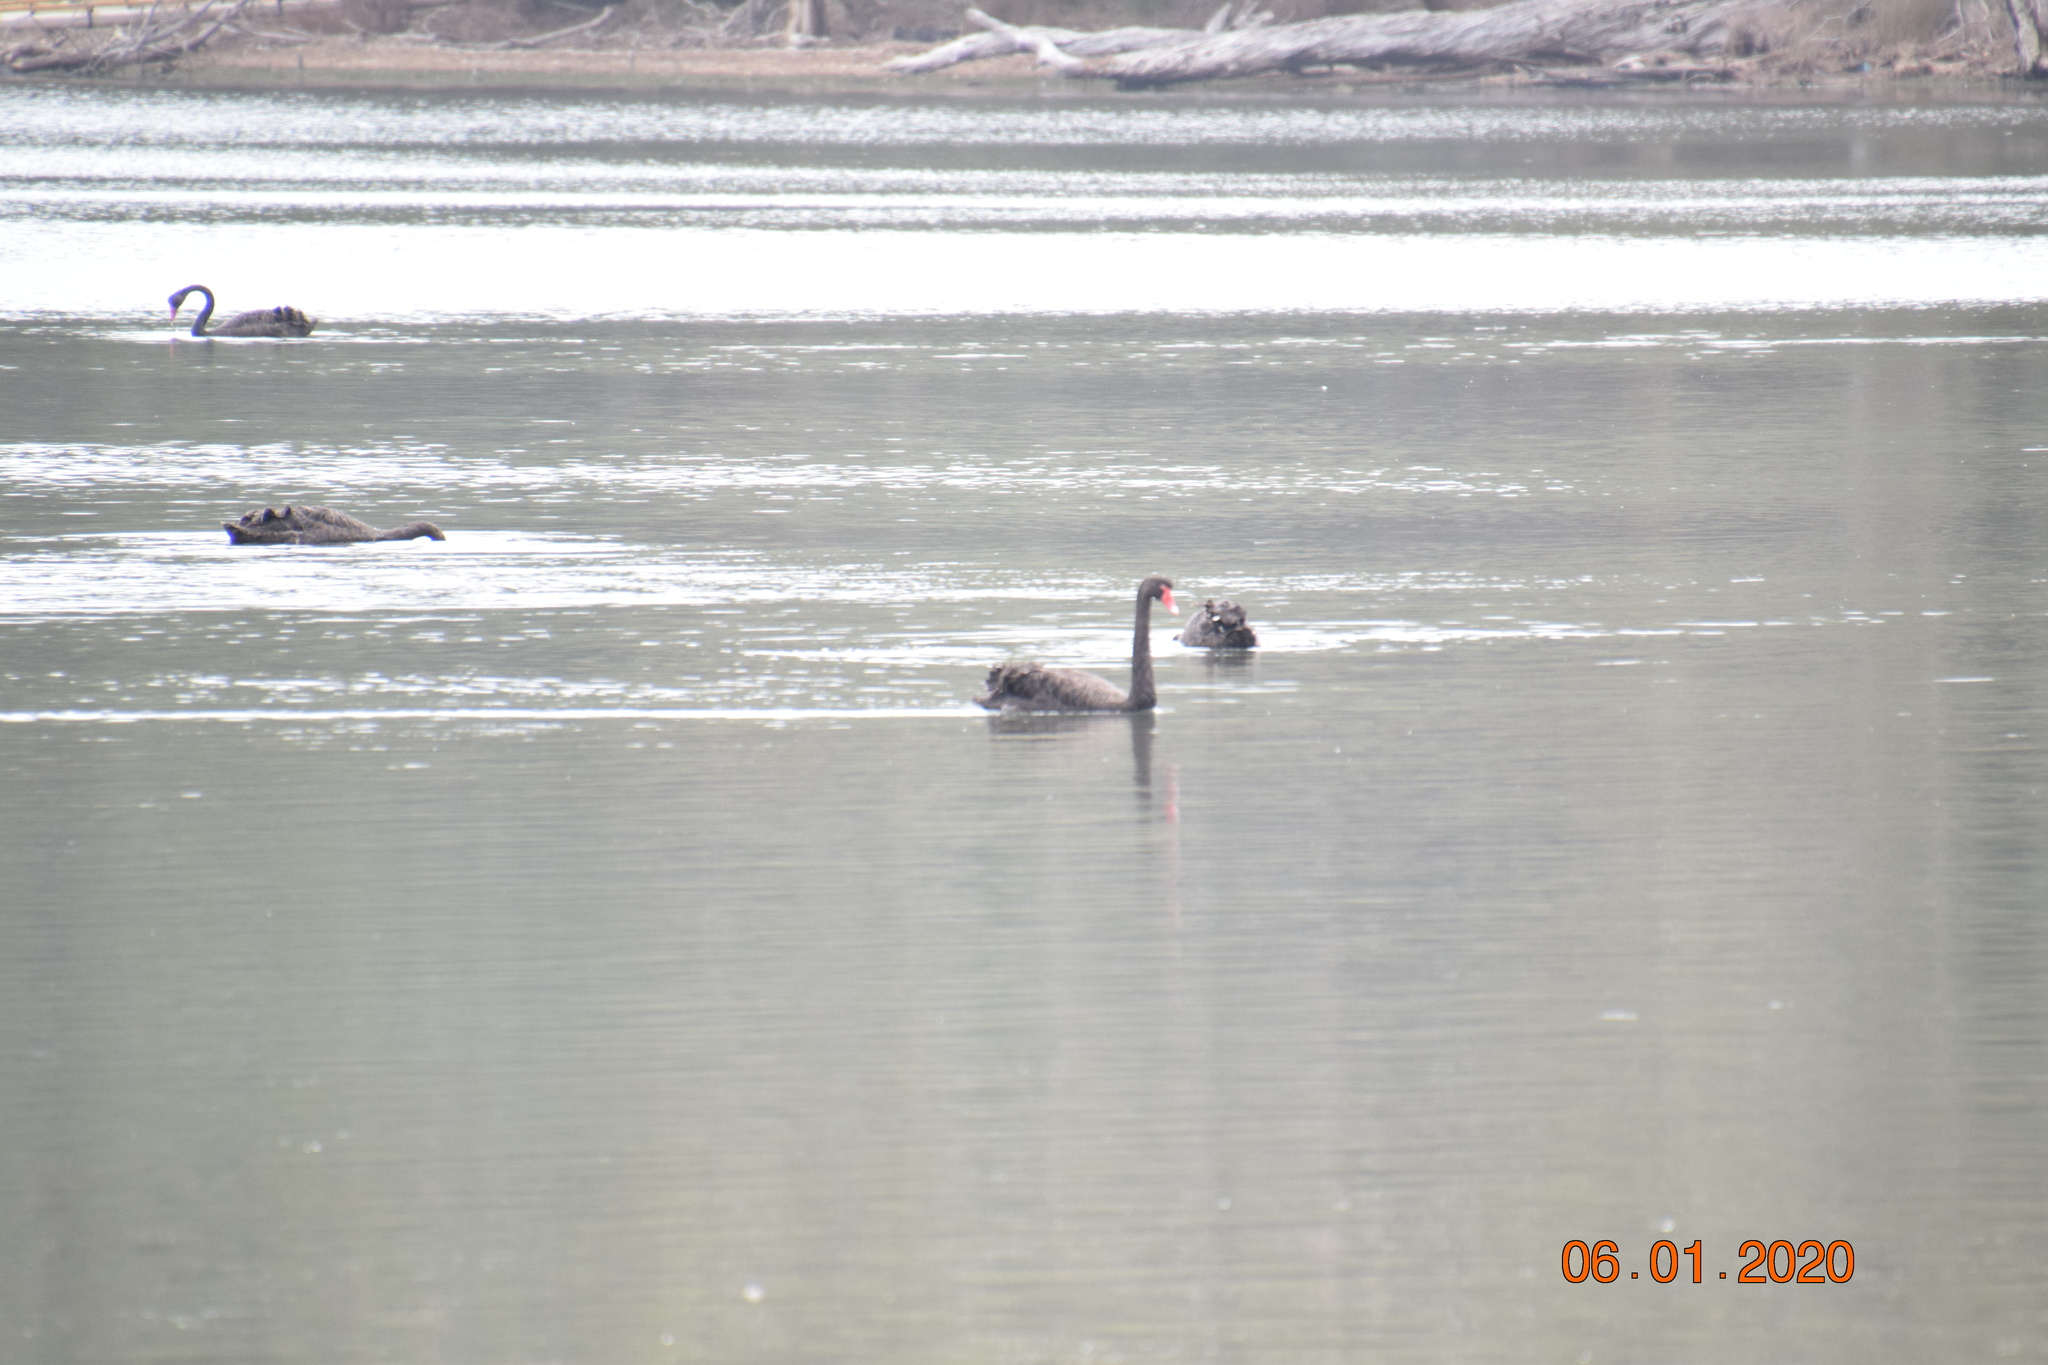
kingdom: Animalia
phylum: Chordata
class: Aves
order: Anseriformes
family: Anatidae
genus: Cygnus
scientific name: Cygnus atratus
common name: Black swan
